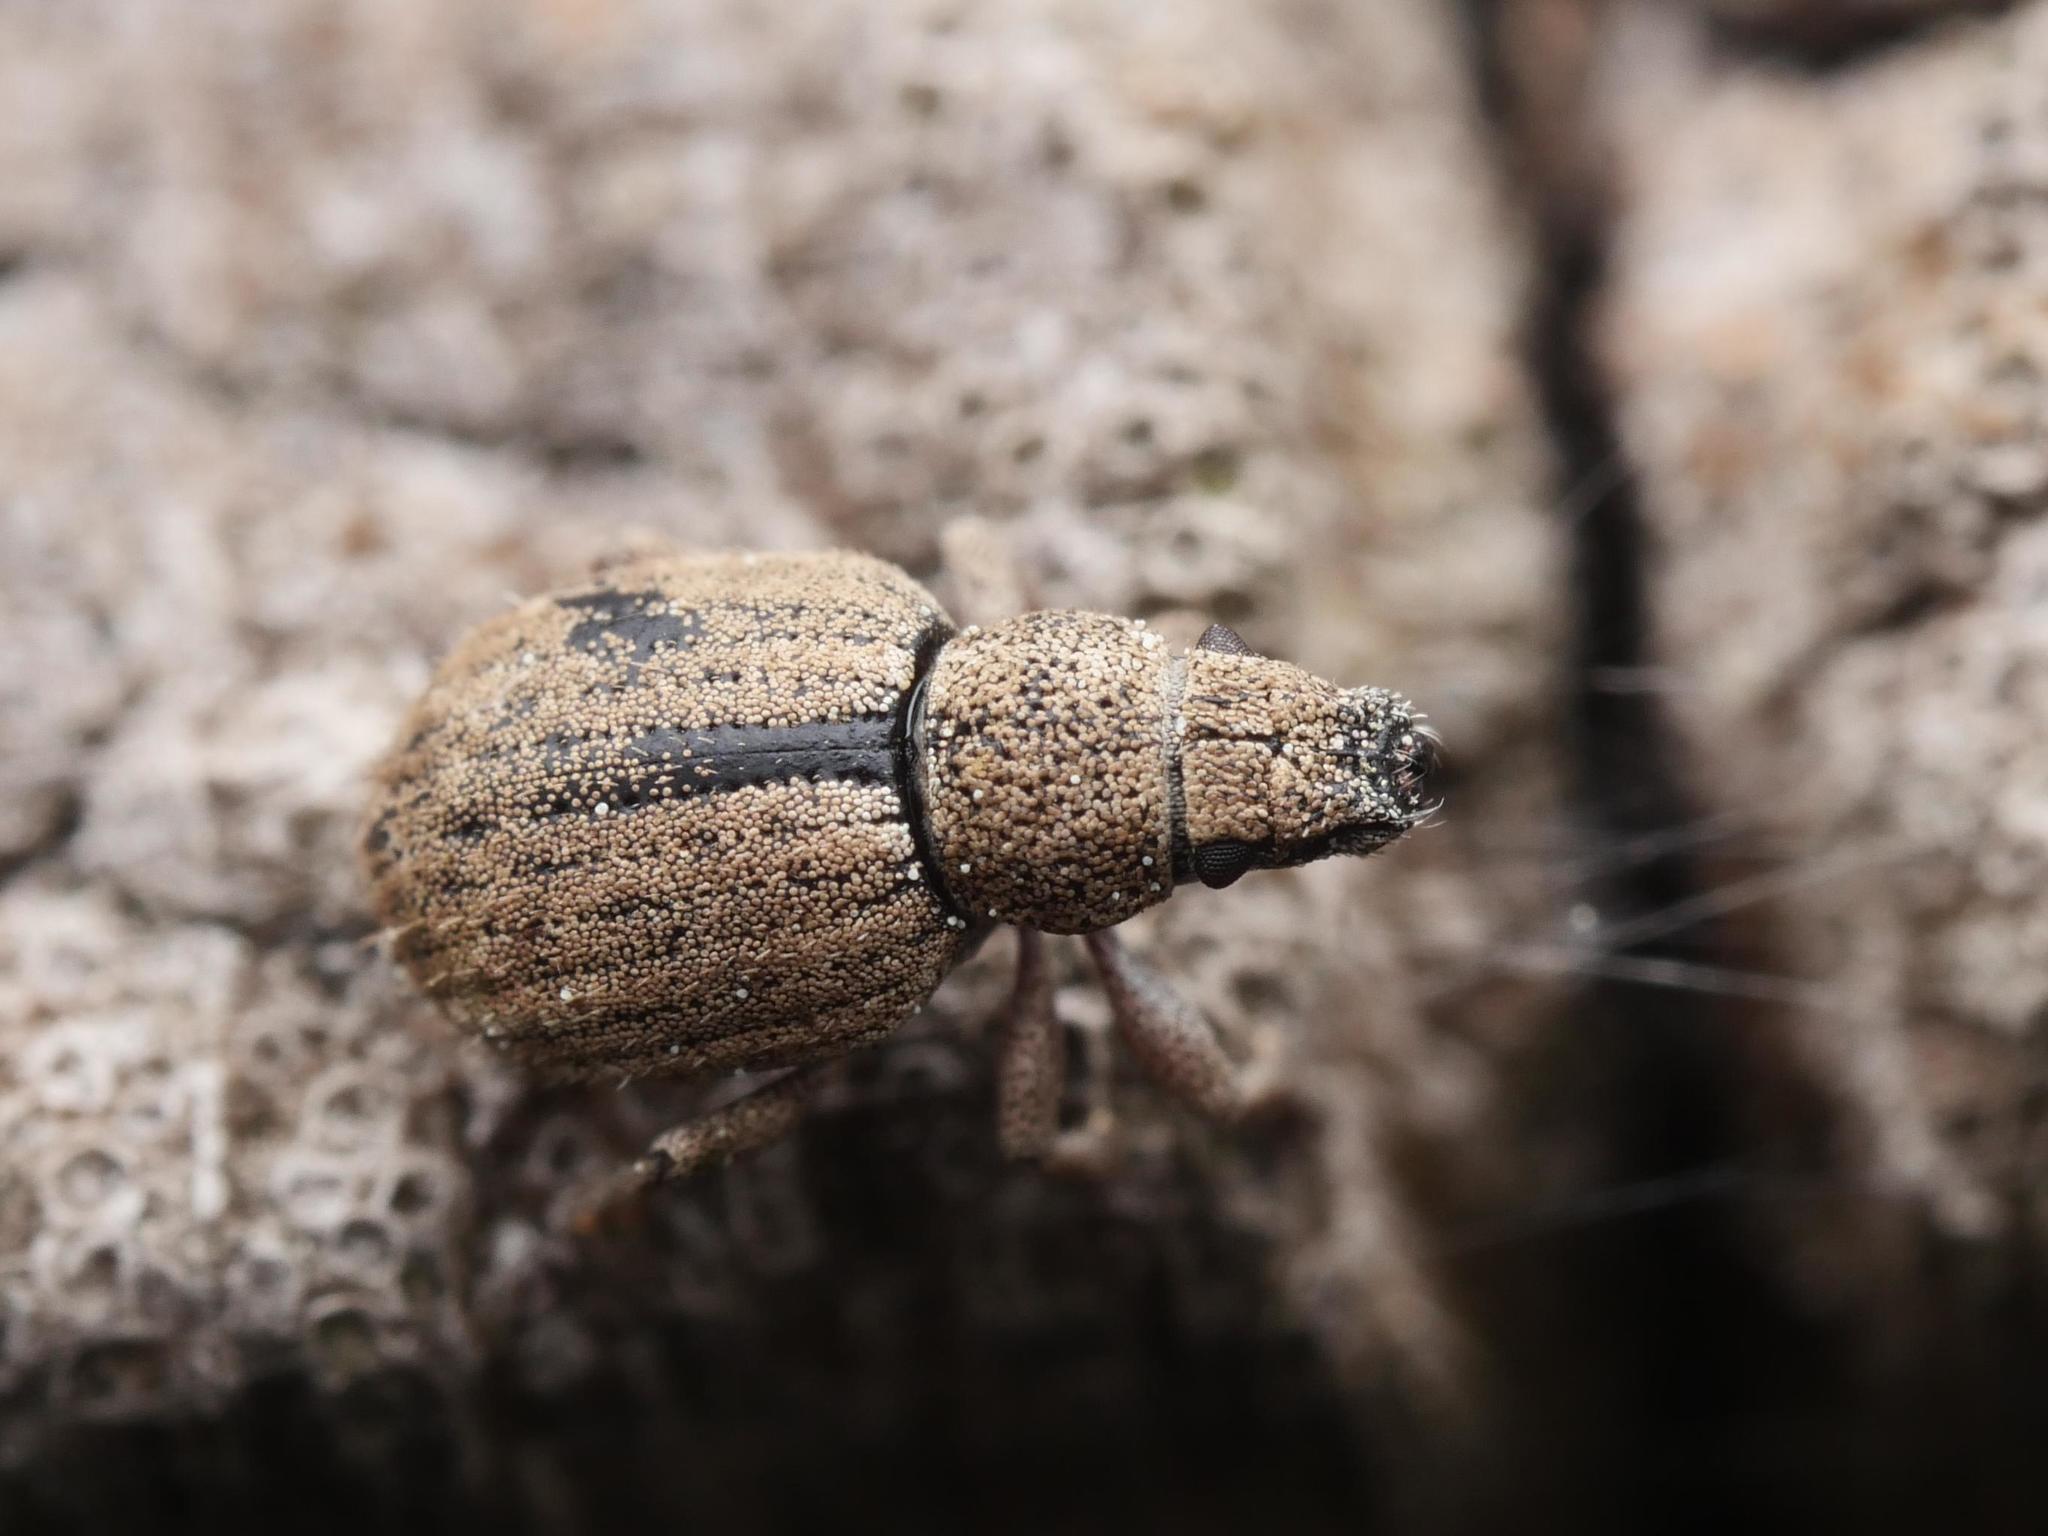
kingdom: Animalia
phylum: Arthropoda
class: Insecta
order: Coleoptera
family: Curculionidae
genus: Strophosoma
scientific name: Strophosoma melanogrammum
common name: Weevil
